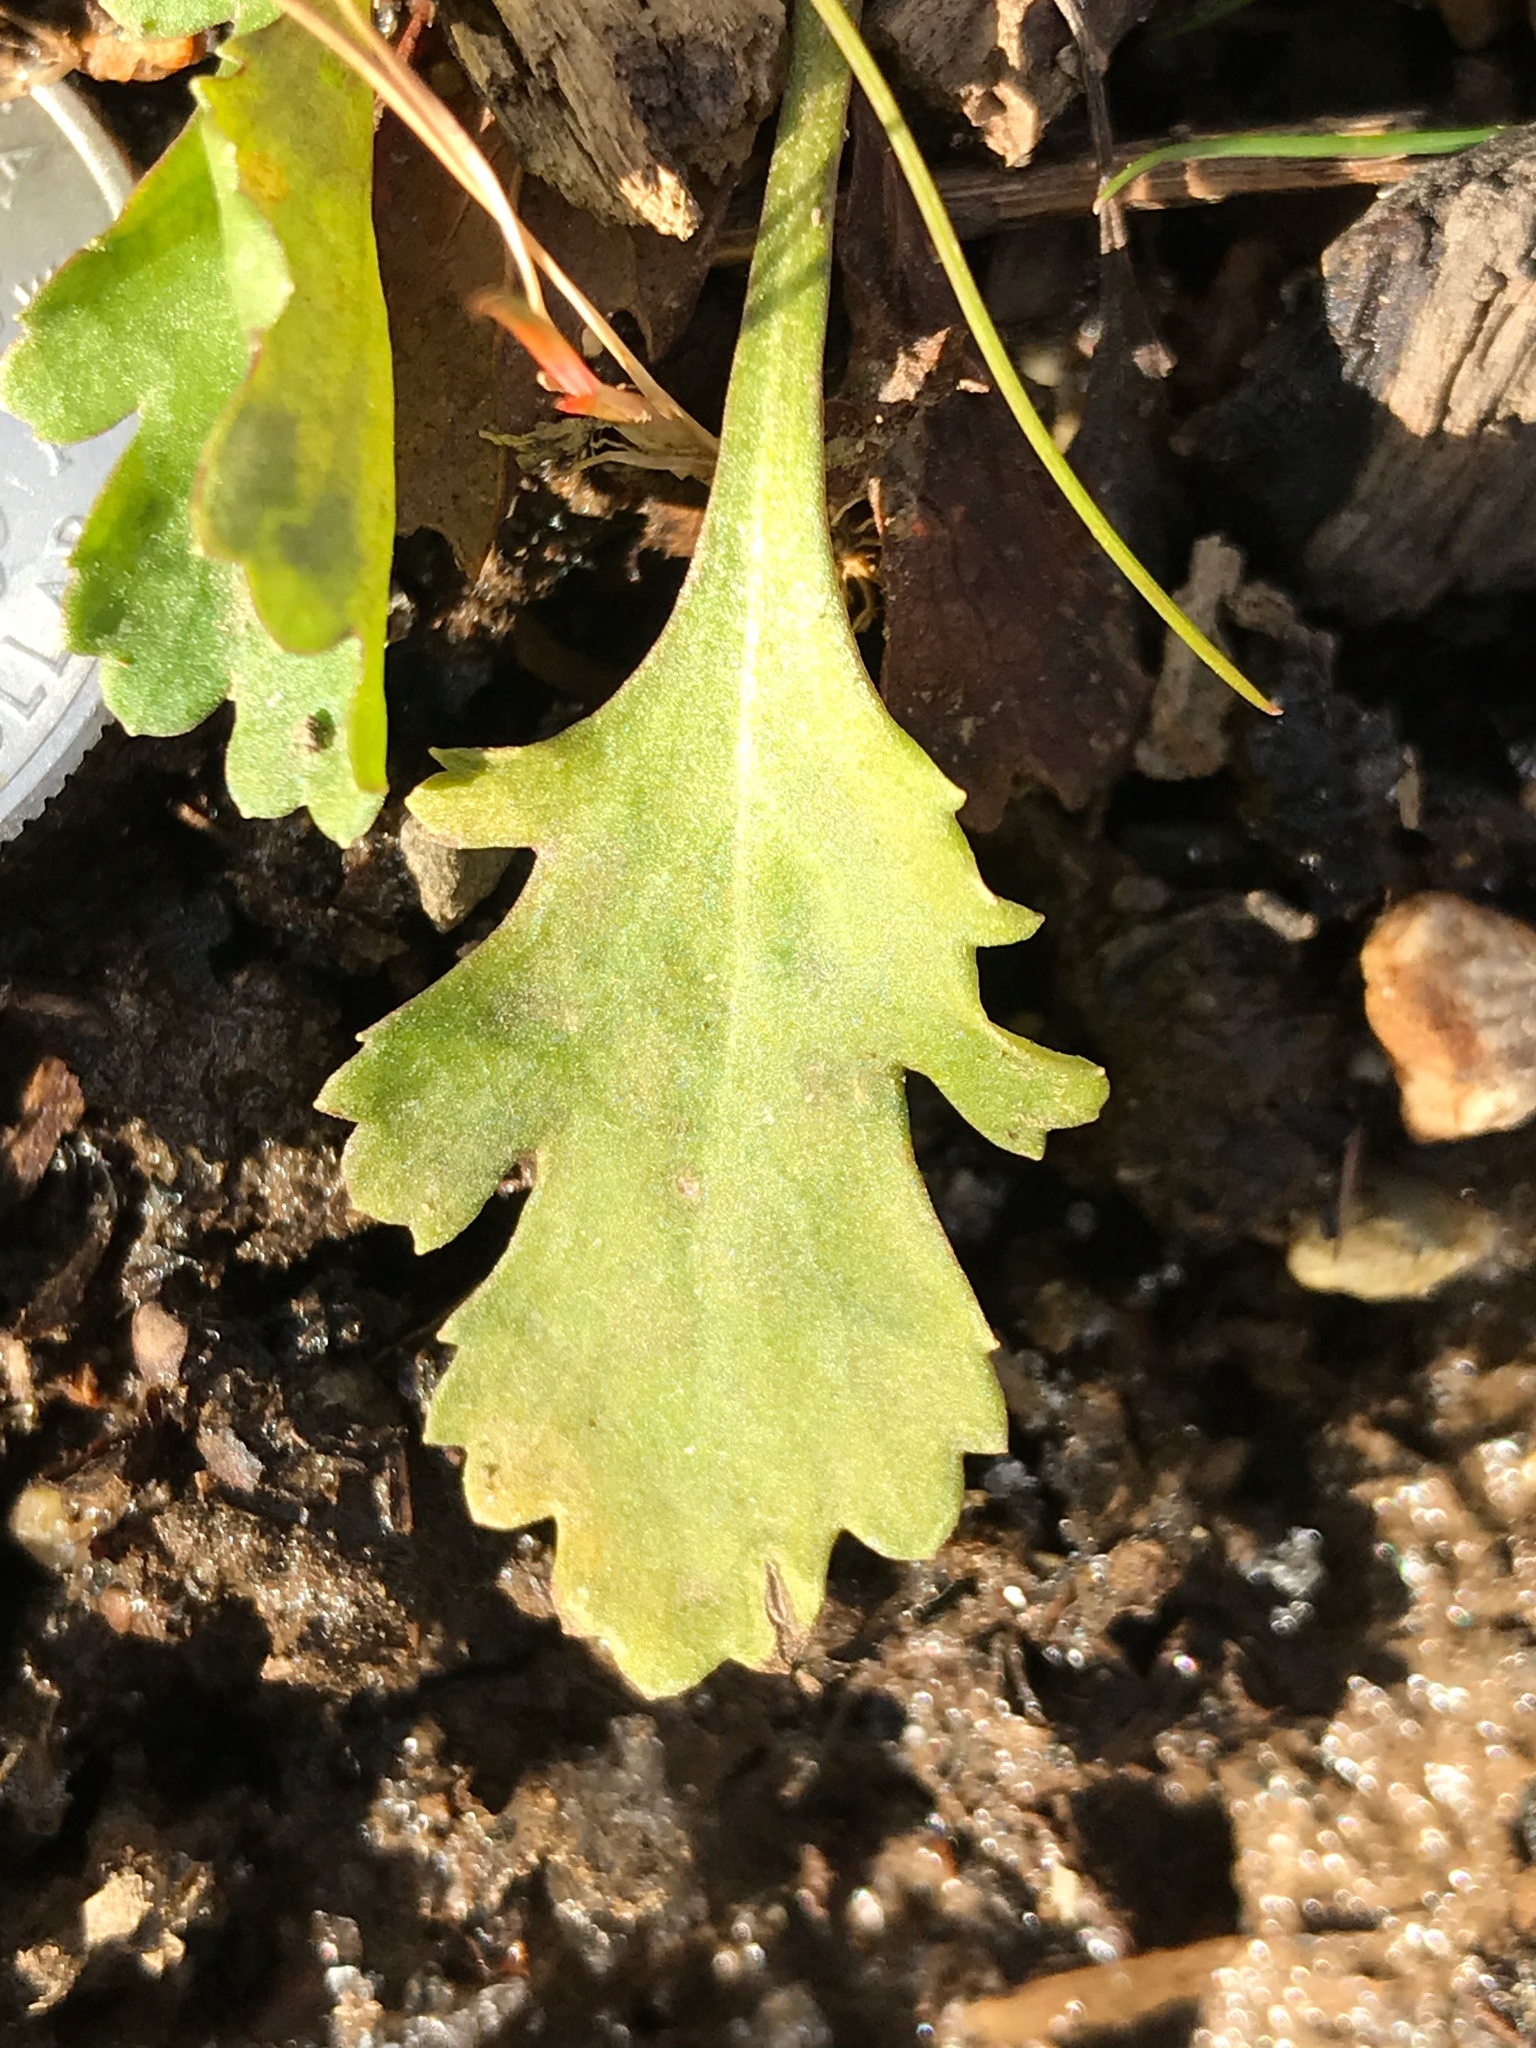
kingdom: Plantae
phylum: Tracheophyta
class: Magnoliopsida
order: Asterales
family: Asteraceae
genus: Leucanthemum
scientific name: Leucanthemum vulgare
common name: Oxeye daisy
